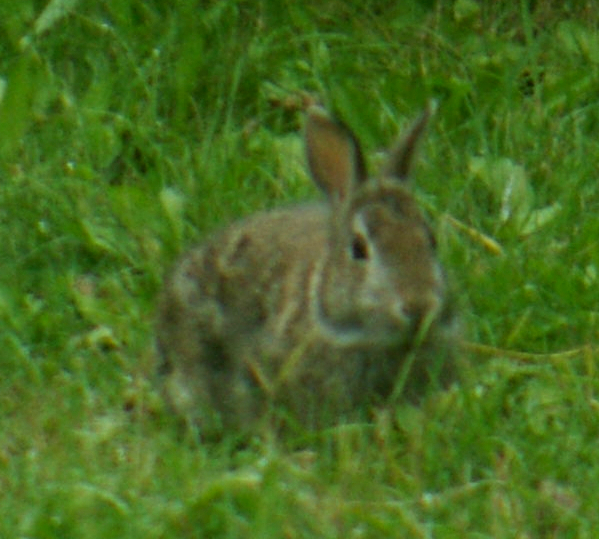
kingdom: Animalia
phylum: Chordata
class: Mammalia
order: Lagomorpha
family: Leporidae
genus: Sylvilagus
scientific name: Sylvilagus floridanus
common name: Eastern cottontail
